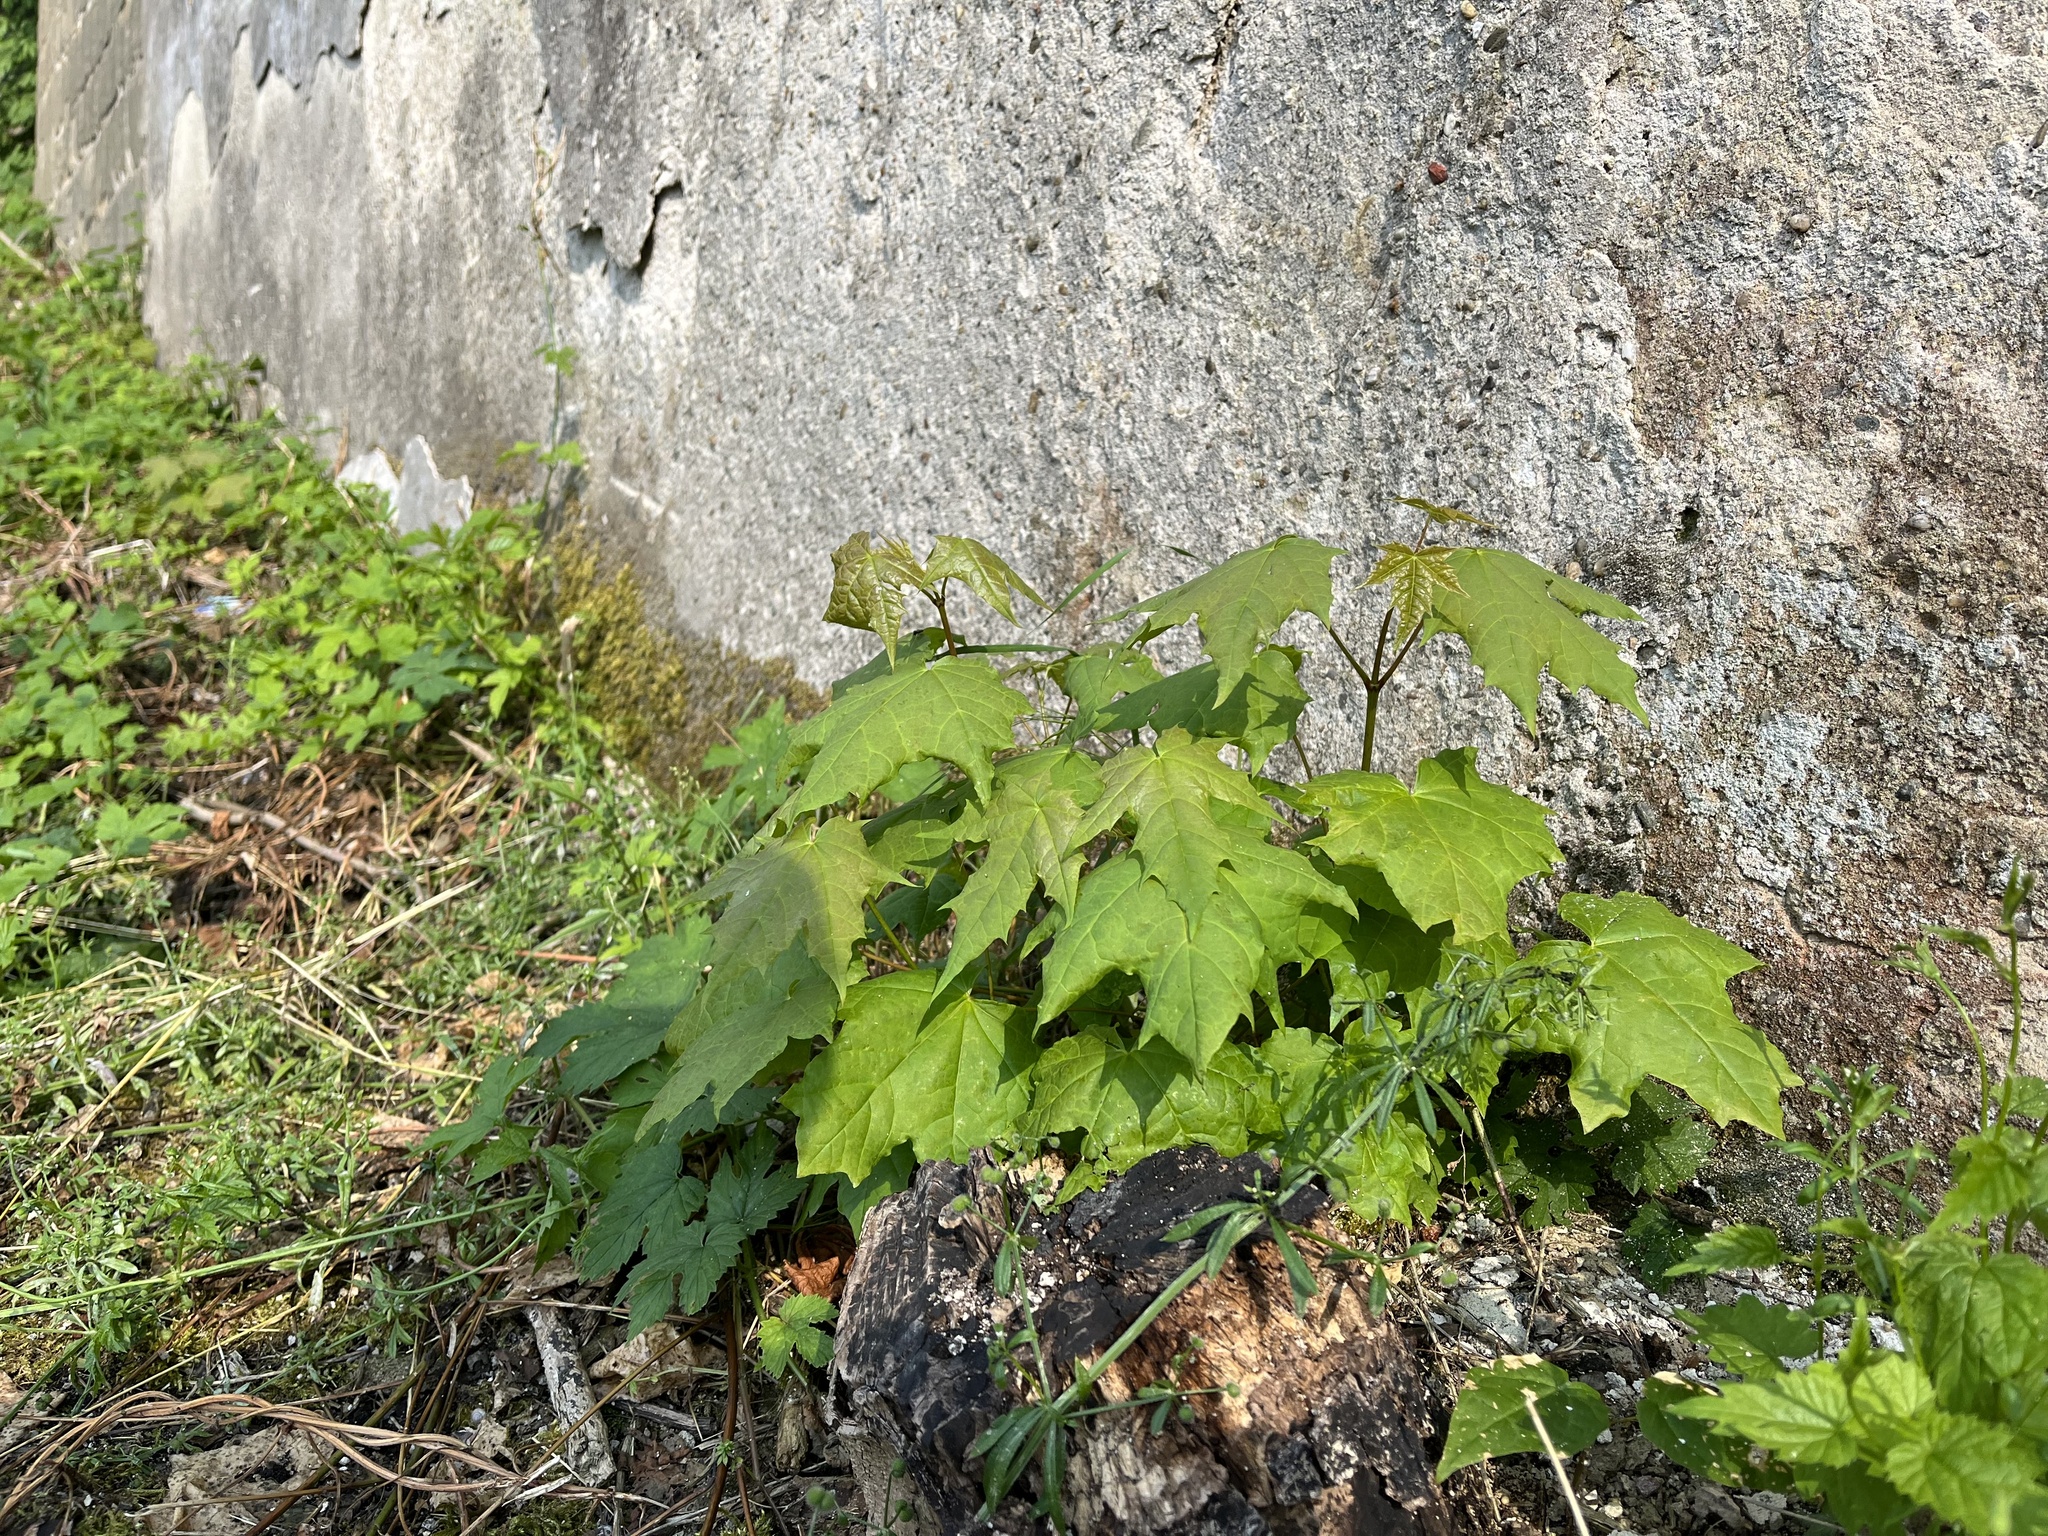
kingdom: Plantae
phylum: Tracheophyta
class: Magnoliopsida
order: Sapindales
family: Sapindaceae
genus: Acer
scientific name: Acer platanoides
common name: Norway maple
